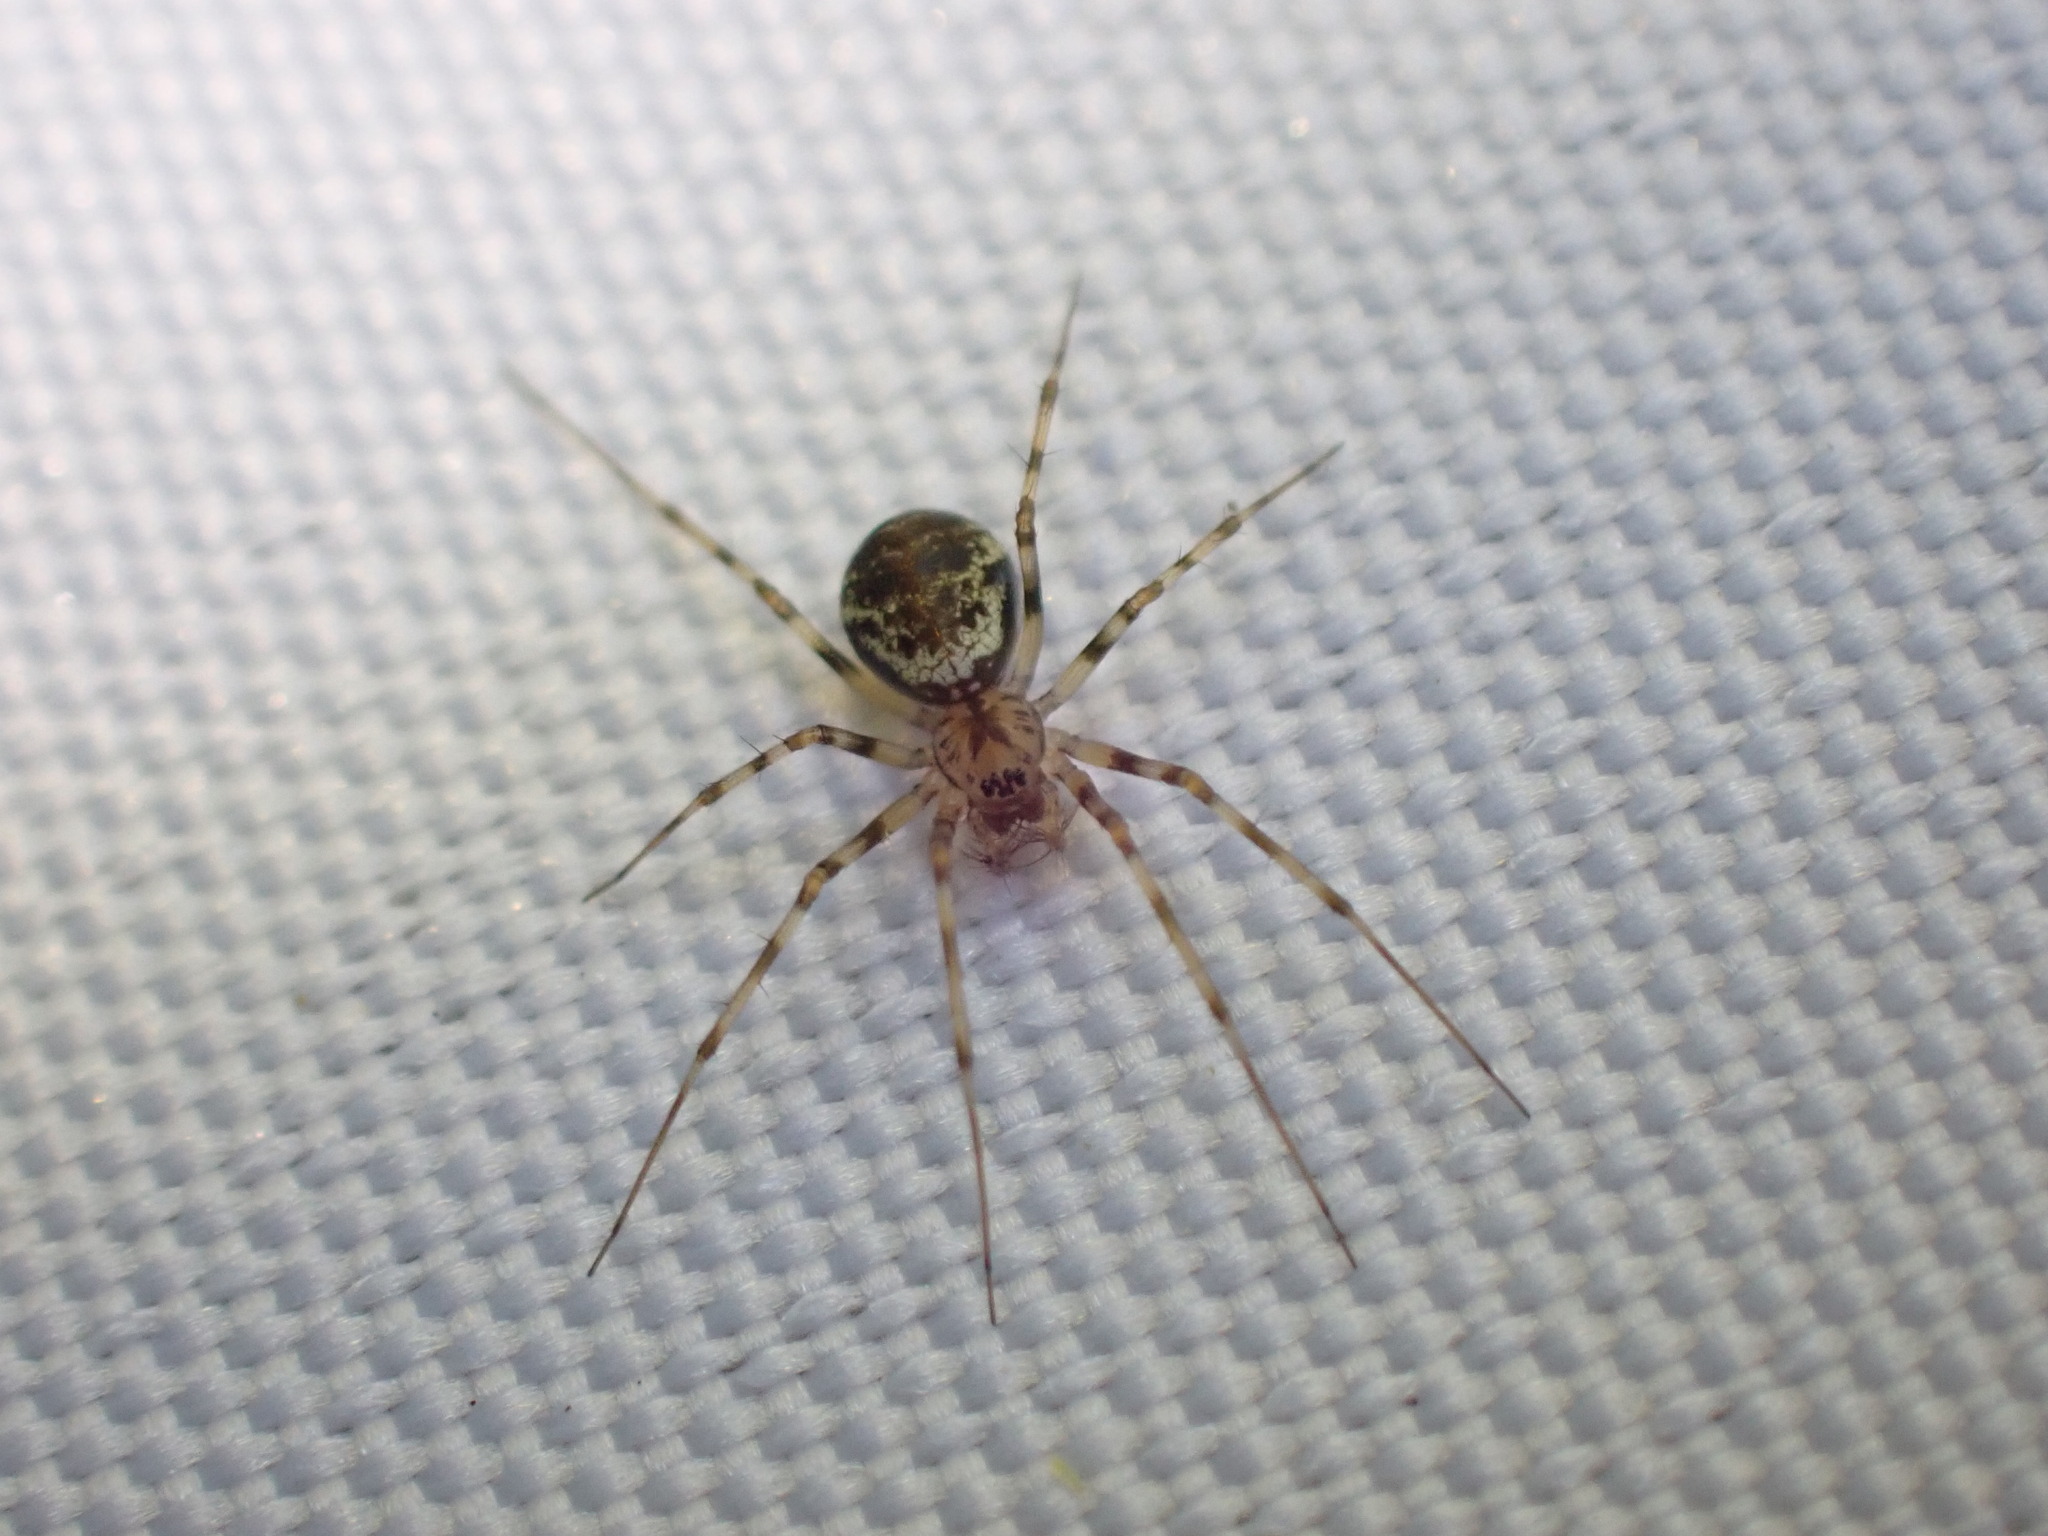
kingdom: Animalia
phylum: Arthropoda
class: Arachnida
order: Araneae
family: Linyphiidae
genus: Drapetisca
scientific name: Drapetisca socialis
